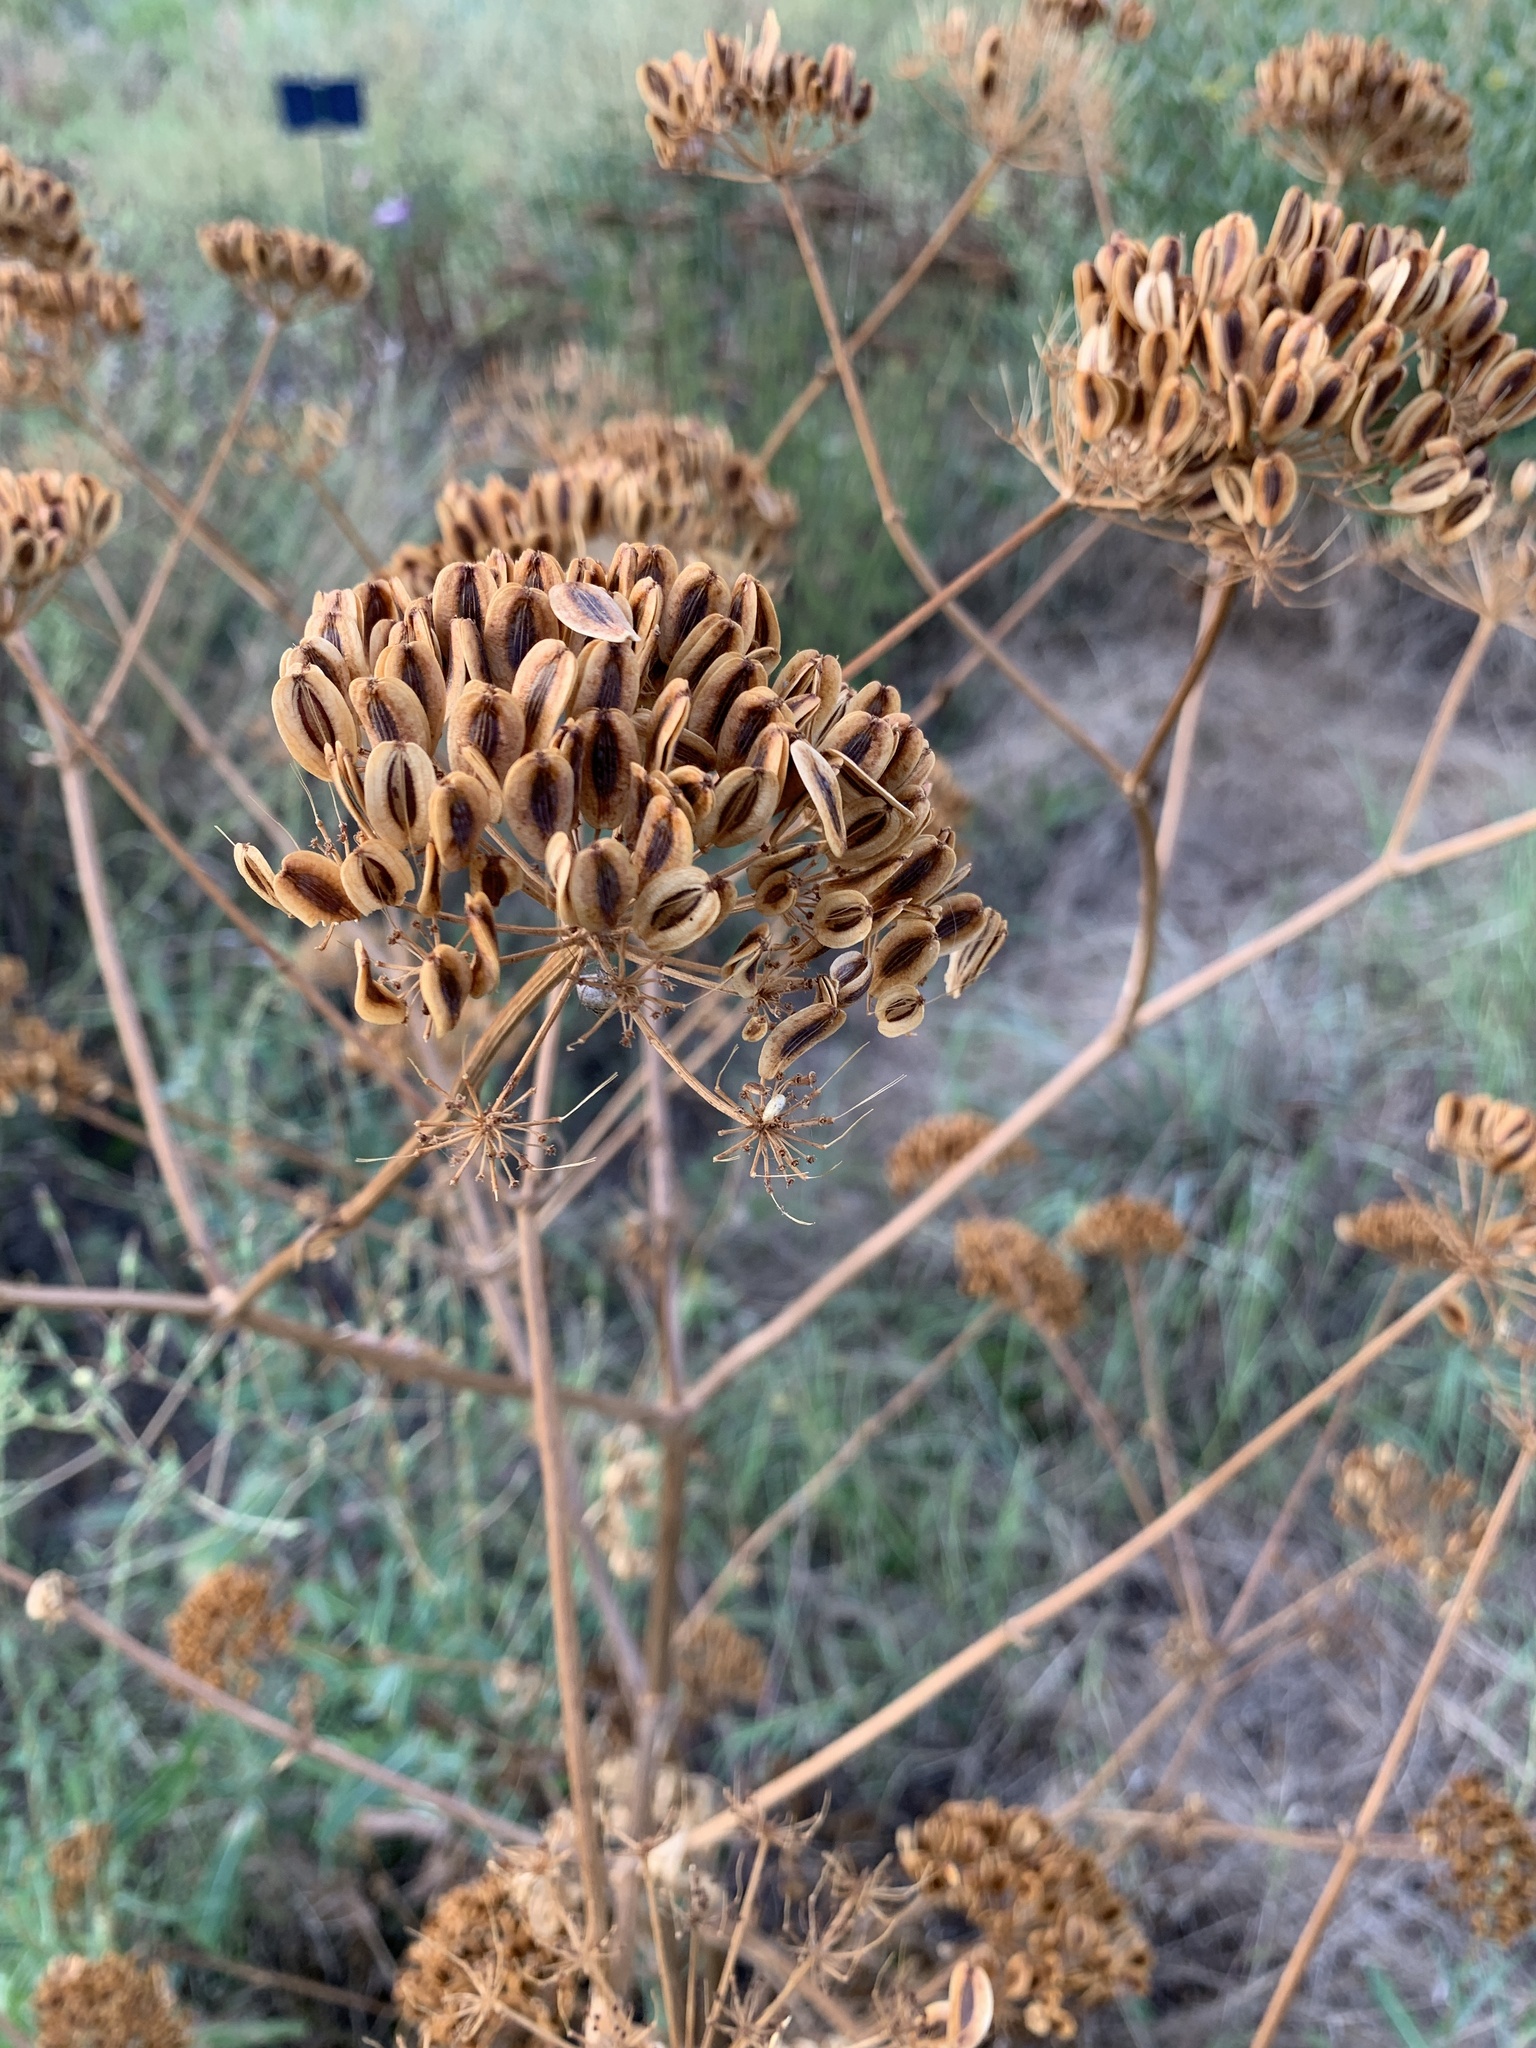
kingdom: Plantae
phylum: Tracheophyta
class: Magnoliopsida
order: Apiales
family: Apiaceae
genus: Polytaenia
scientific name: Polytaenia texana
